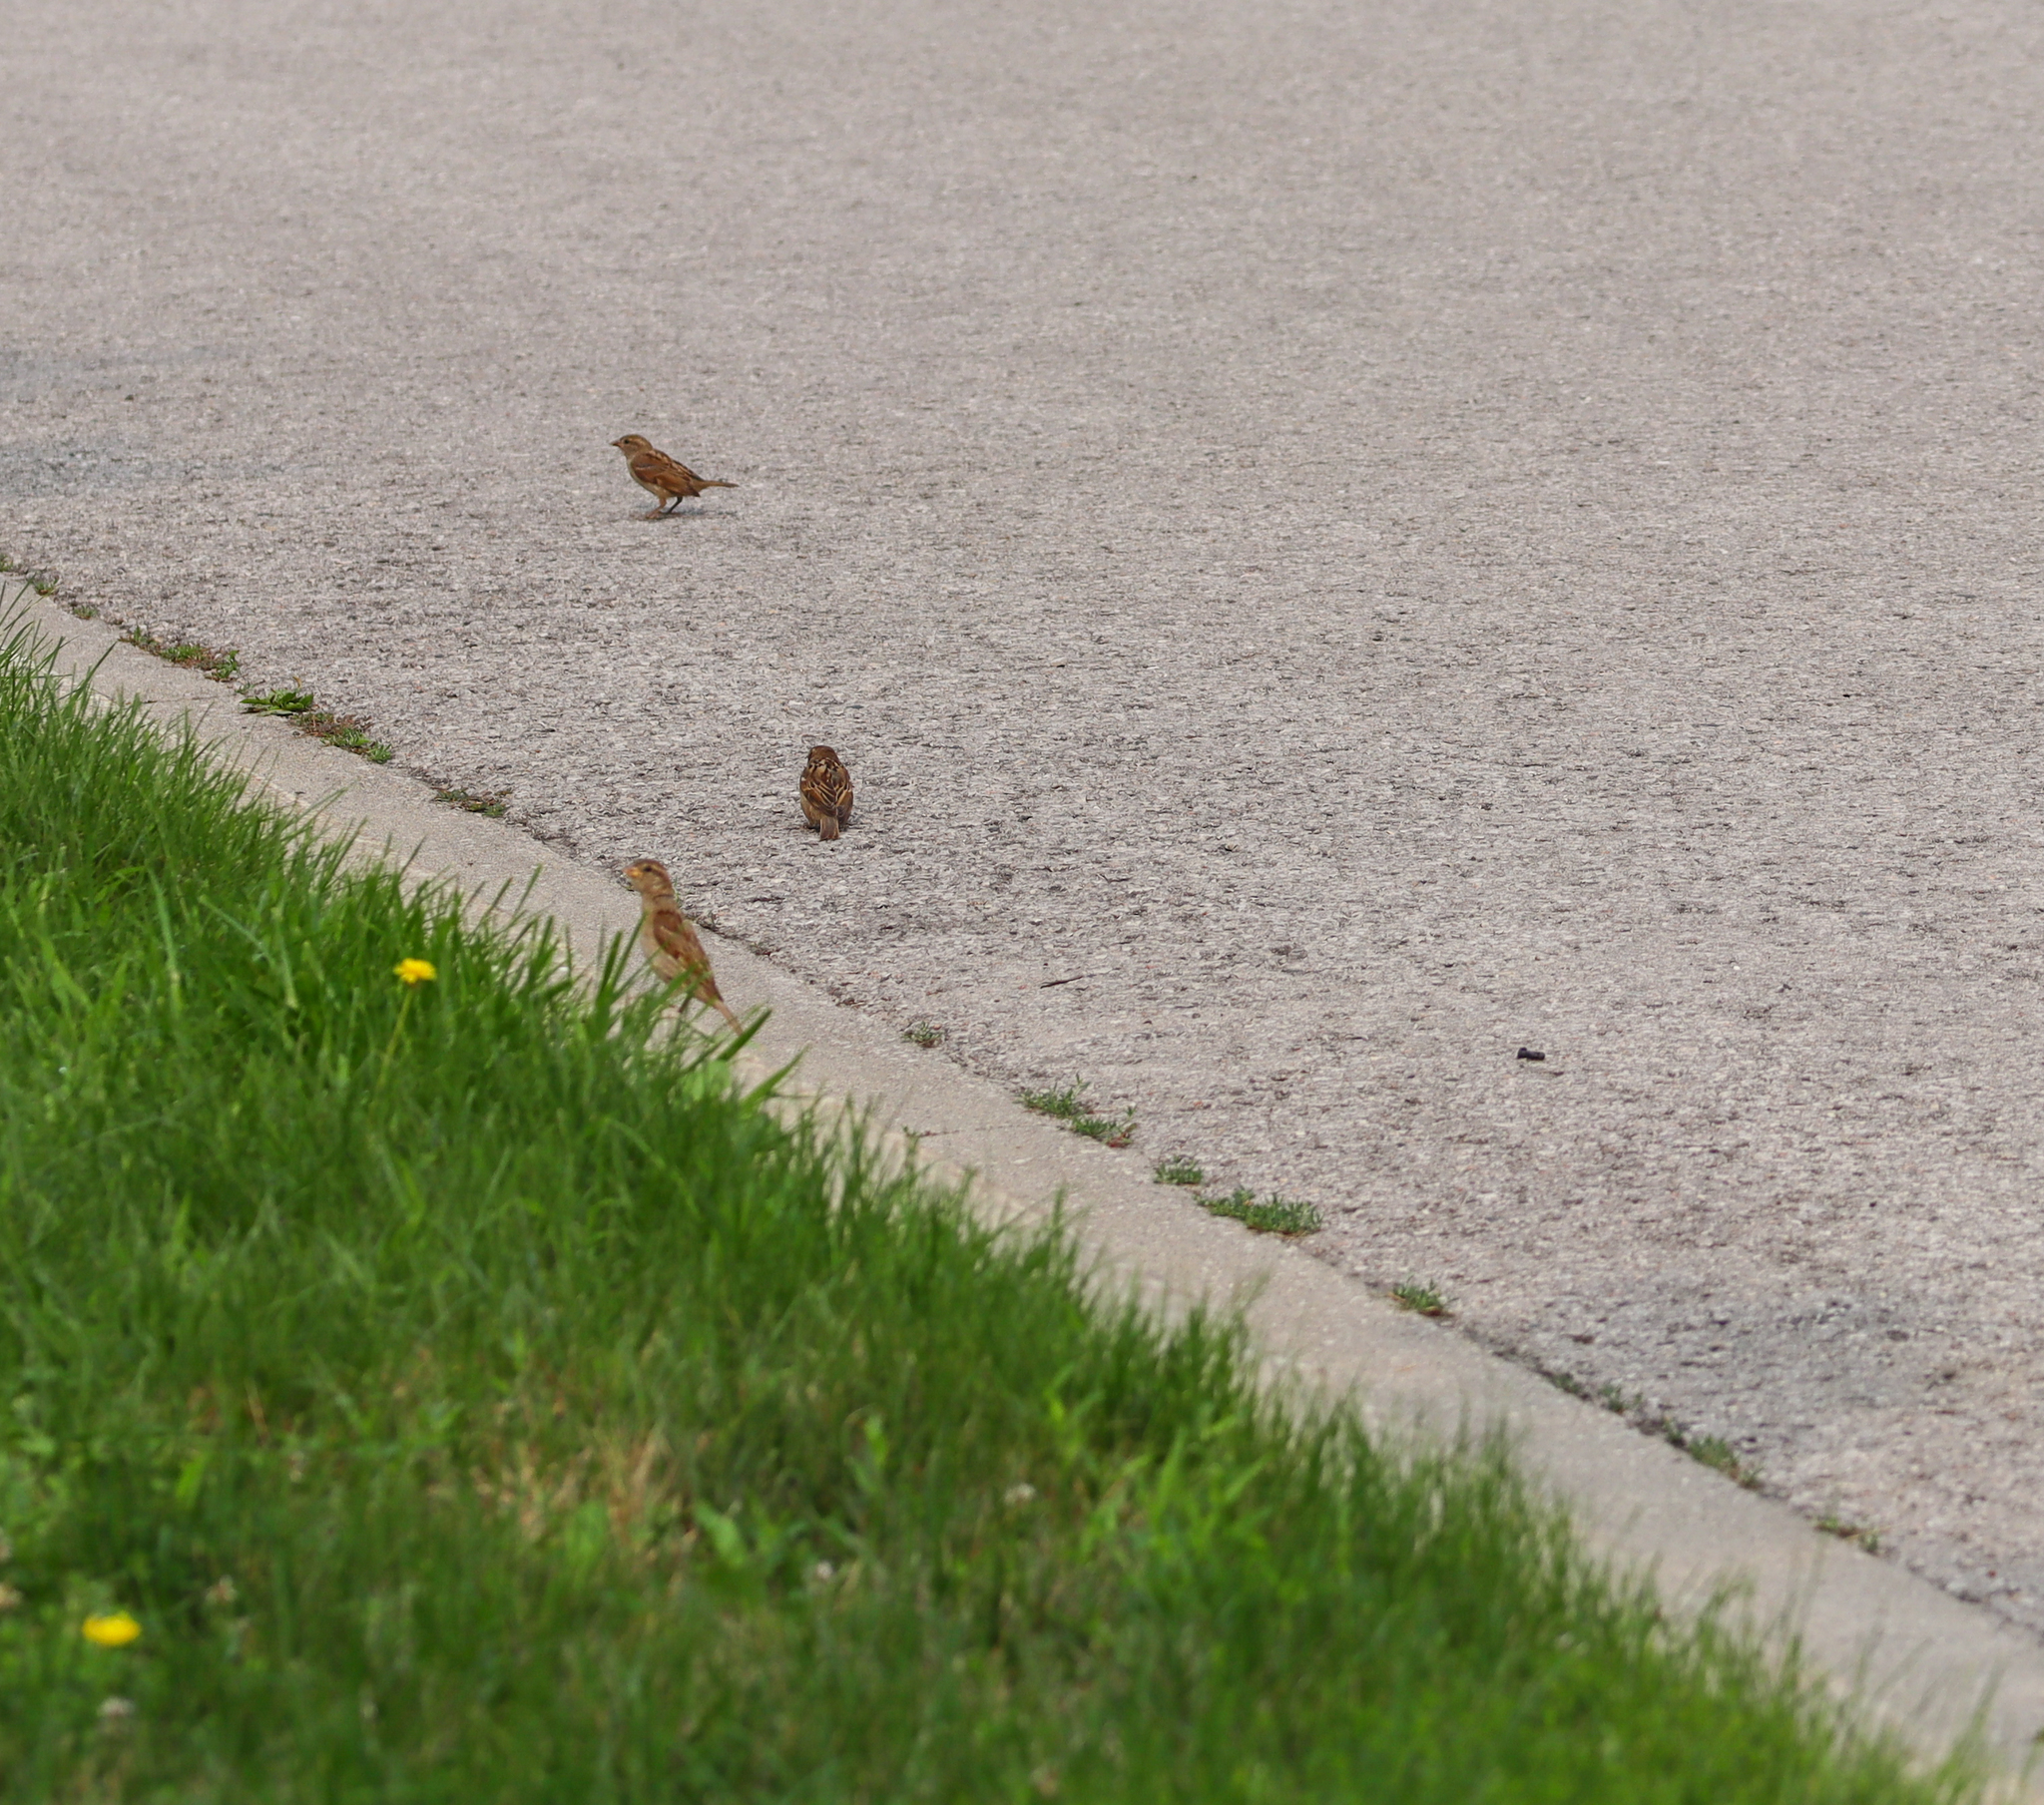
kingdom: Animalia
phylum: Chordata
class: Aves
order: Passeriformes
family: Passeridae
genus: Passer
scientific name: Passer domesticus
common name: House sparrow
